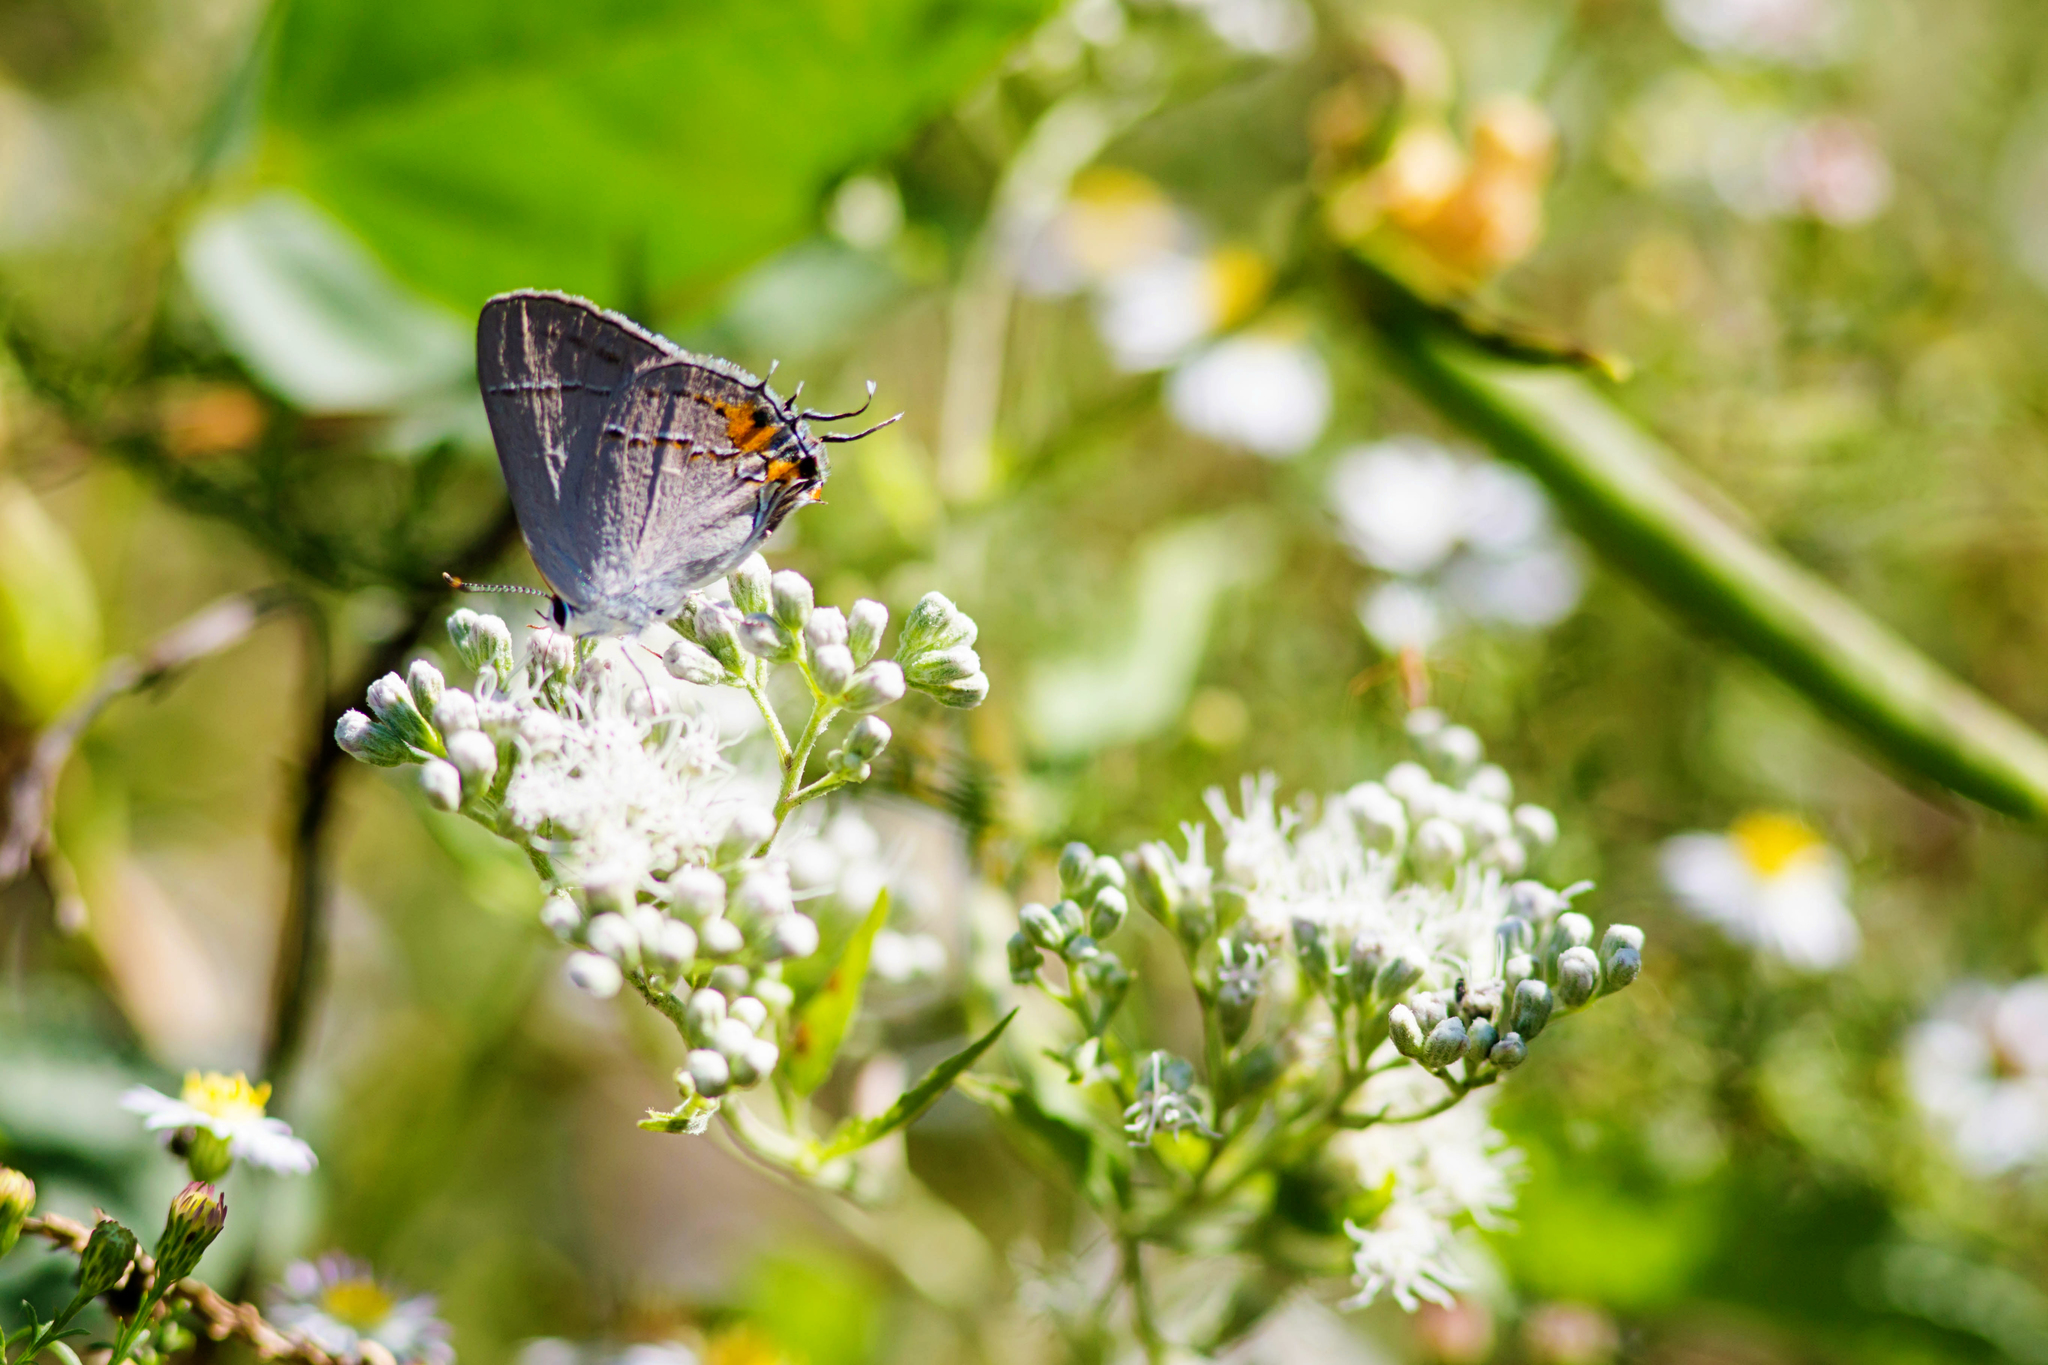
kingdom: Animalia
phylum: Arthropoda
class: Insecta
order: Lepidoptera
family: Lycaenidae
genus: Strymon
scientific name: Strymon melinus
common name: Gray hairstreak
